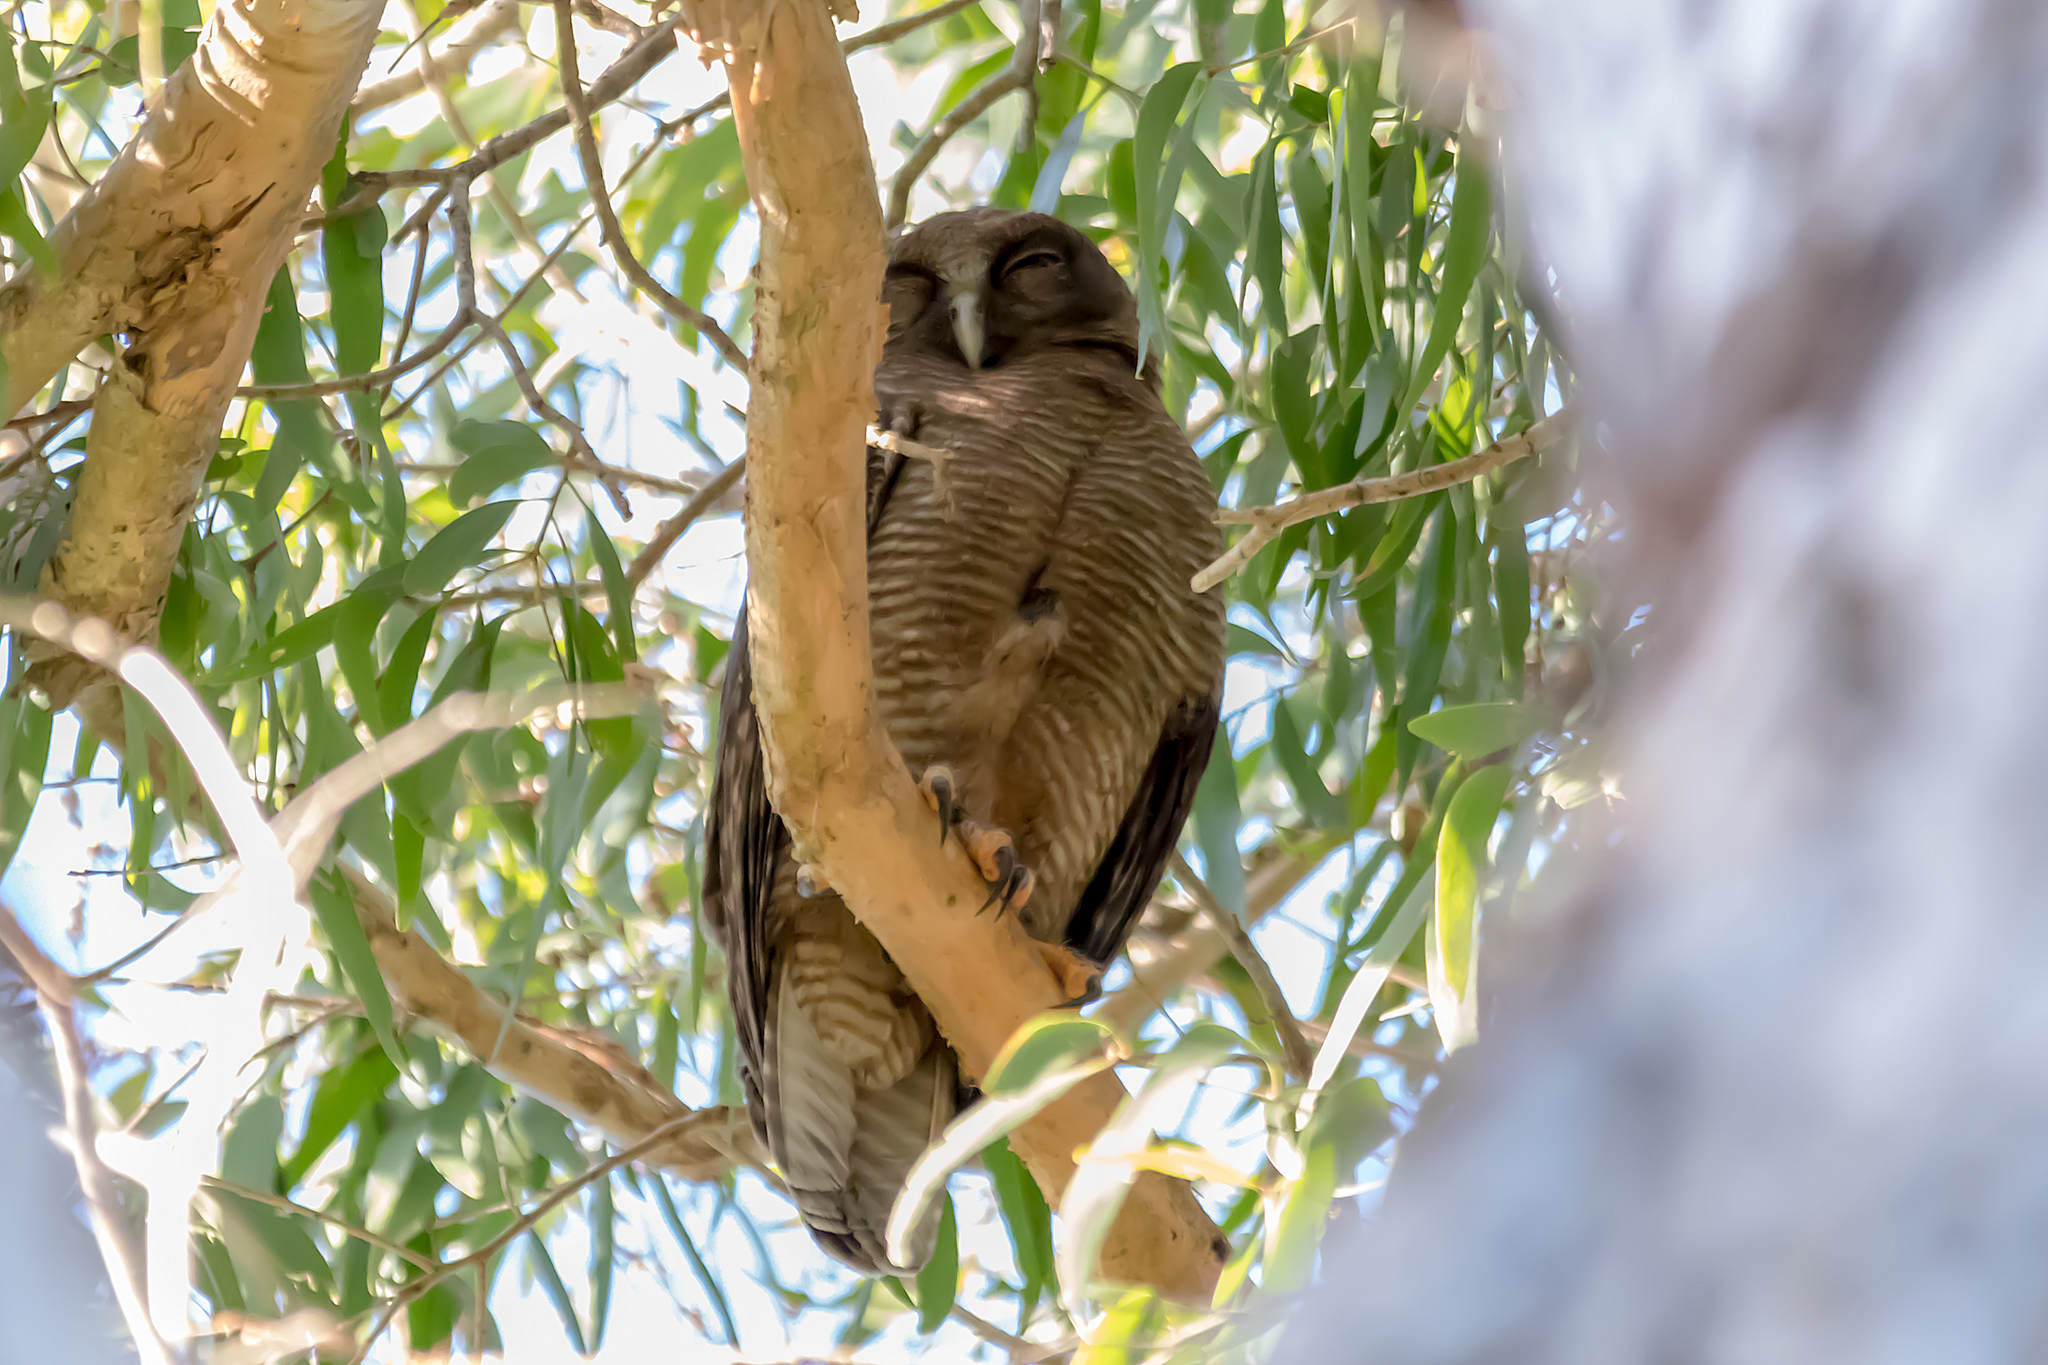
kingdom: Animalia
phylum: Chordata
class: Aves
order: Strigiformes
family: Strigidae
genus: Ninox
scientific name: Ninox rufa
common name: Rufous owl
